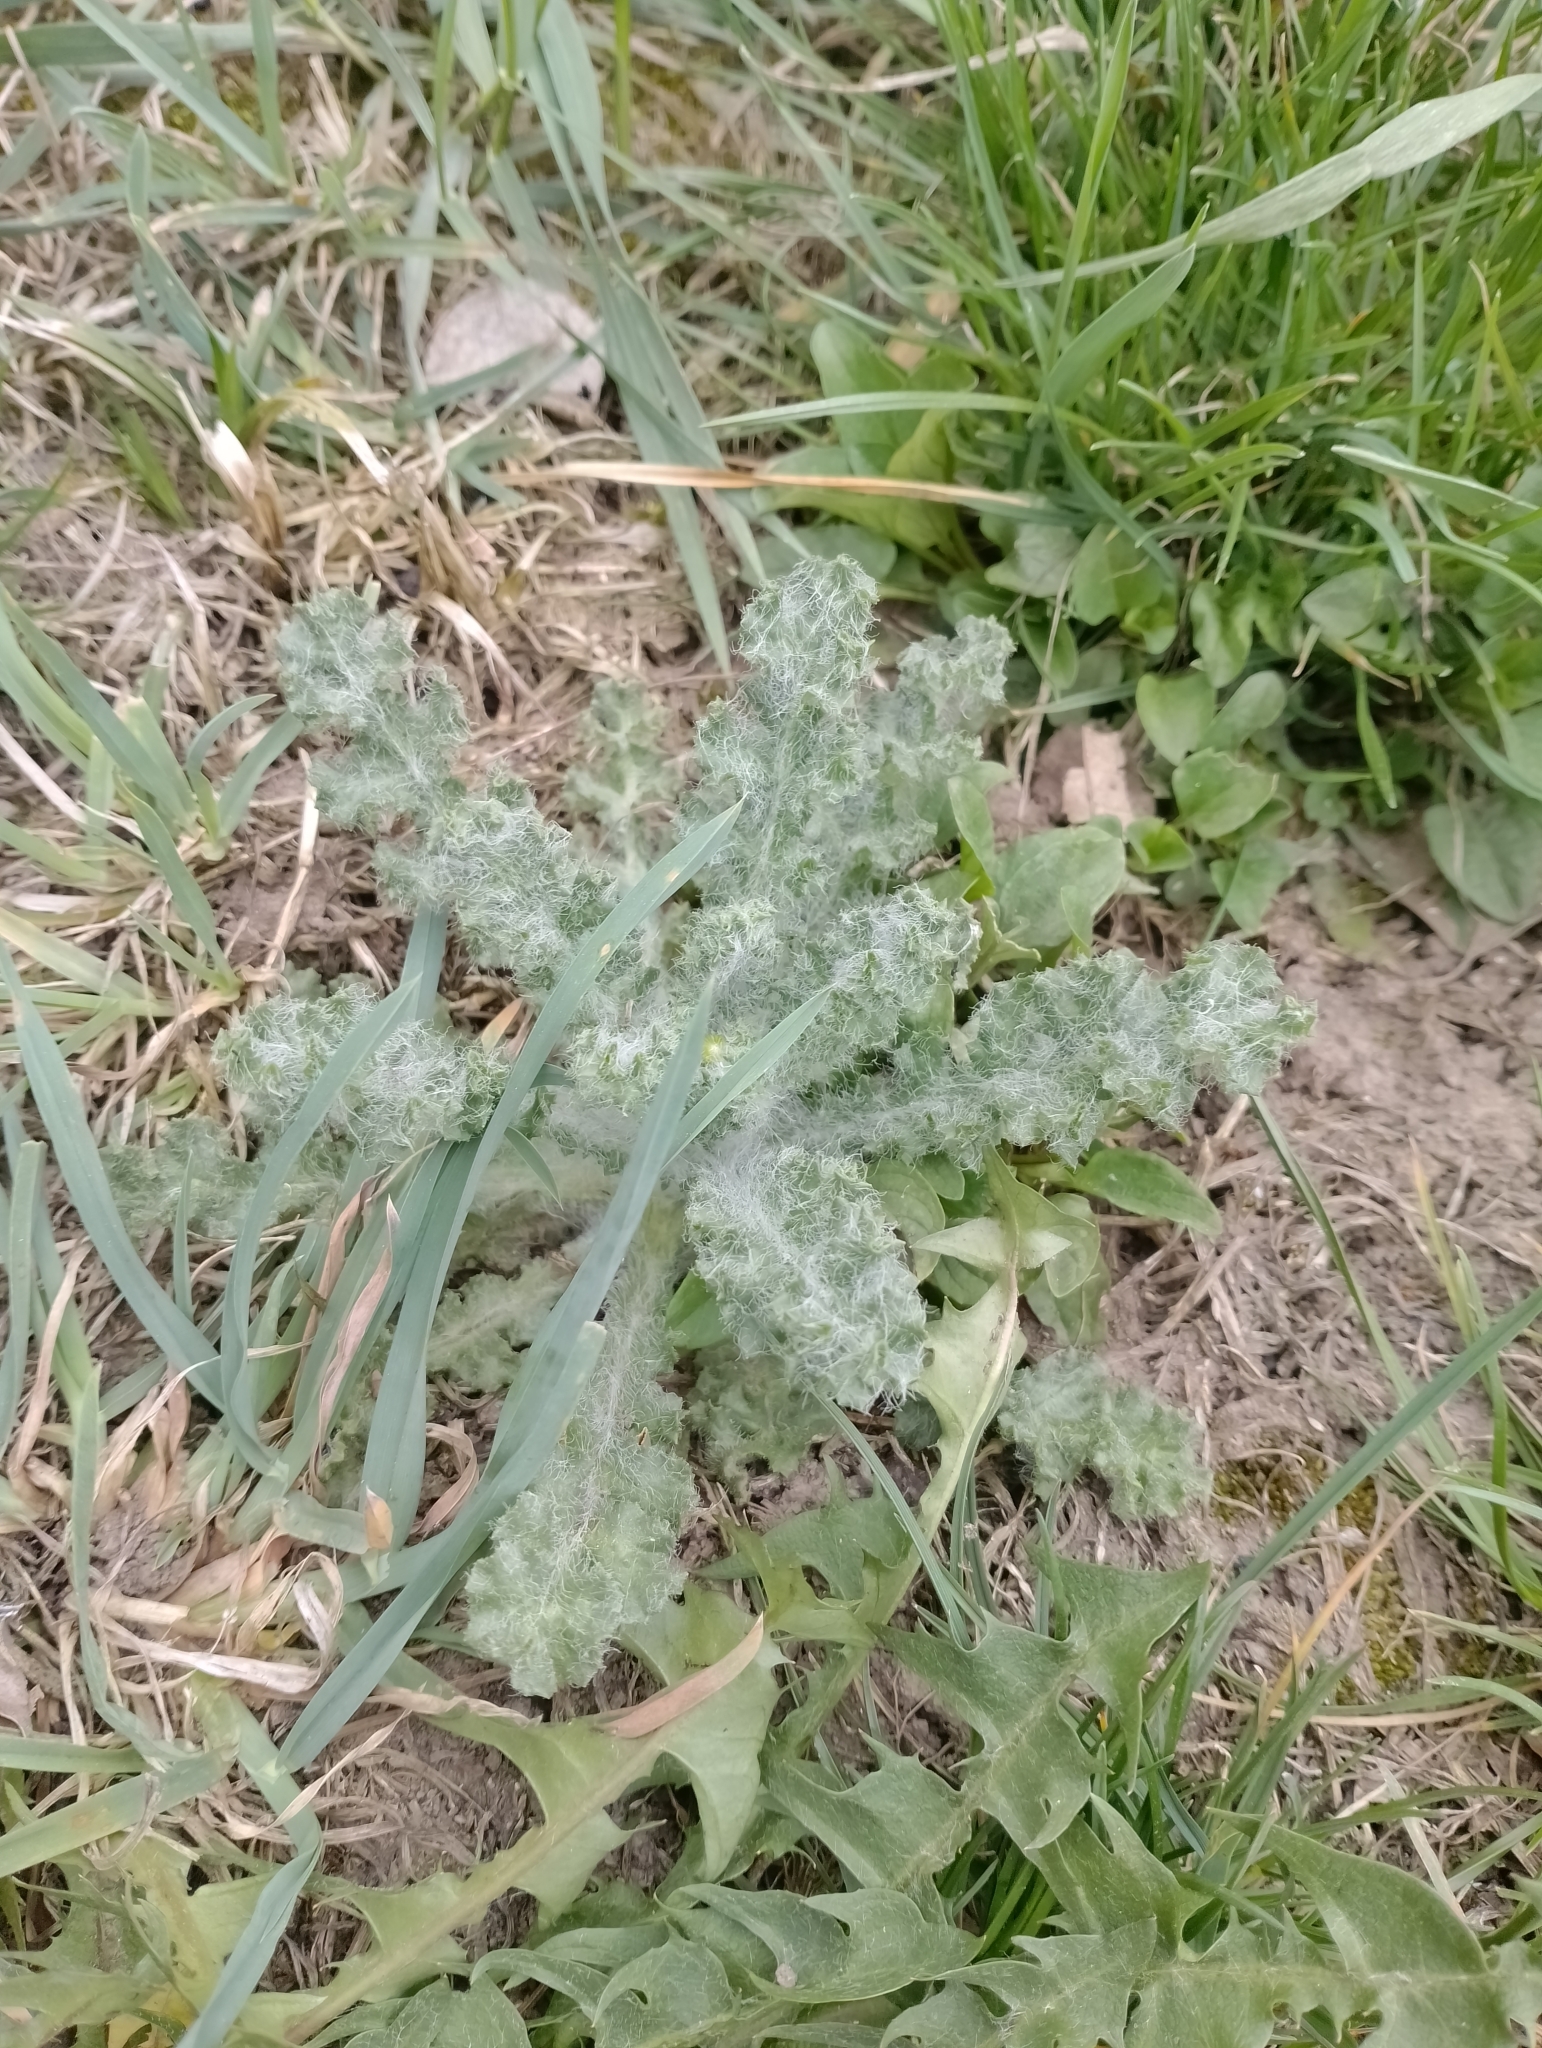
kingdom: Plantae
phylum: Tracheophyta
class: Magnoliopsida
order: Asterales
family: Asteraceae
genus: Senecio
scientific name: Senecio vernalis
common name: Eastern groundsel
